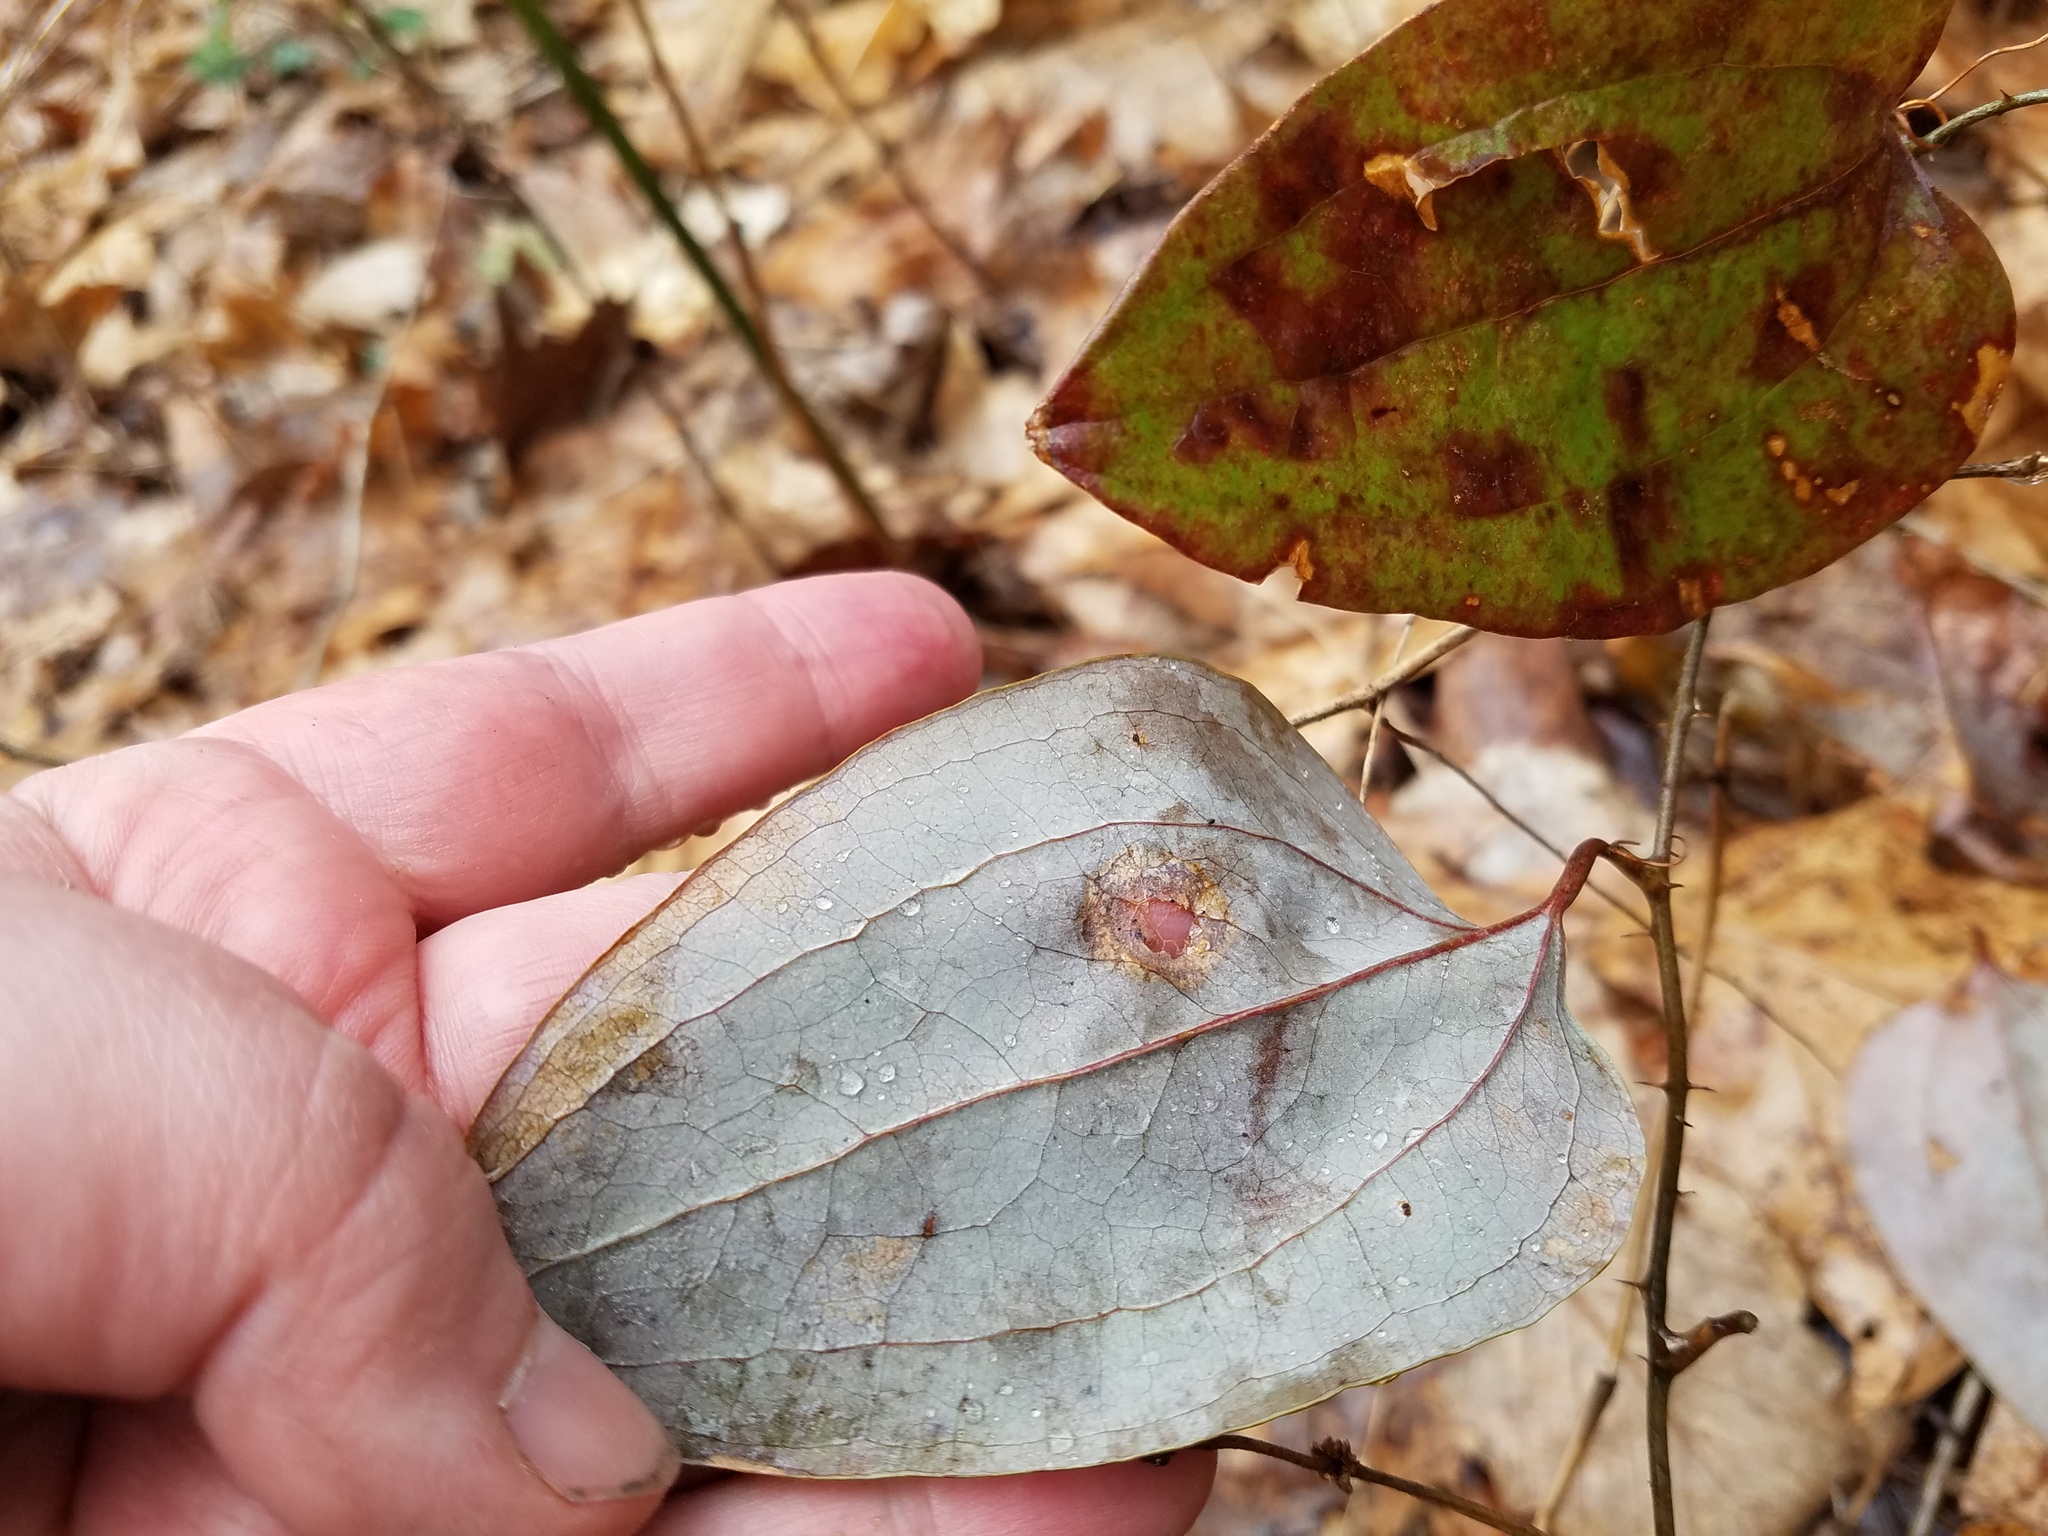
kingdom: Plantae
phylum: Tracheophyta
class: Liliopsida
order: Liliales
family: Smilacaceae
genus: Smilax
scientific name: Smilax glauca
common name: Cat greenbrier
